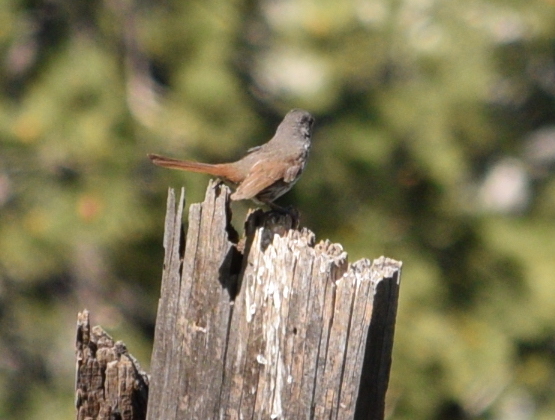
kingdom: Animalia
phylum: Chordata
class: Aves
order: Passeriformes
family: Passerellidae
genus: Passerella
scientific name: Passerella iliaca
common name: Fox sparrow
